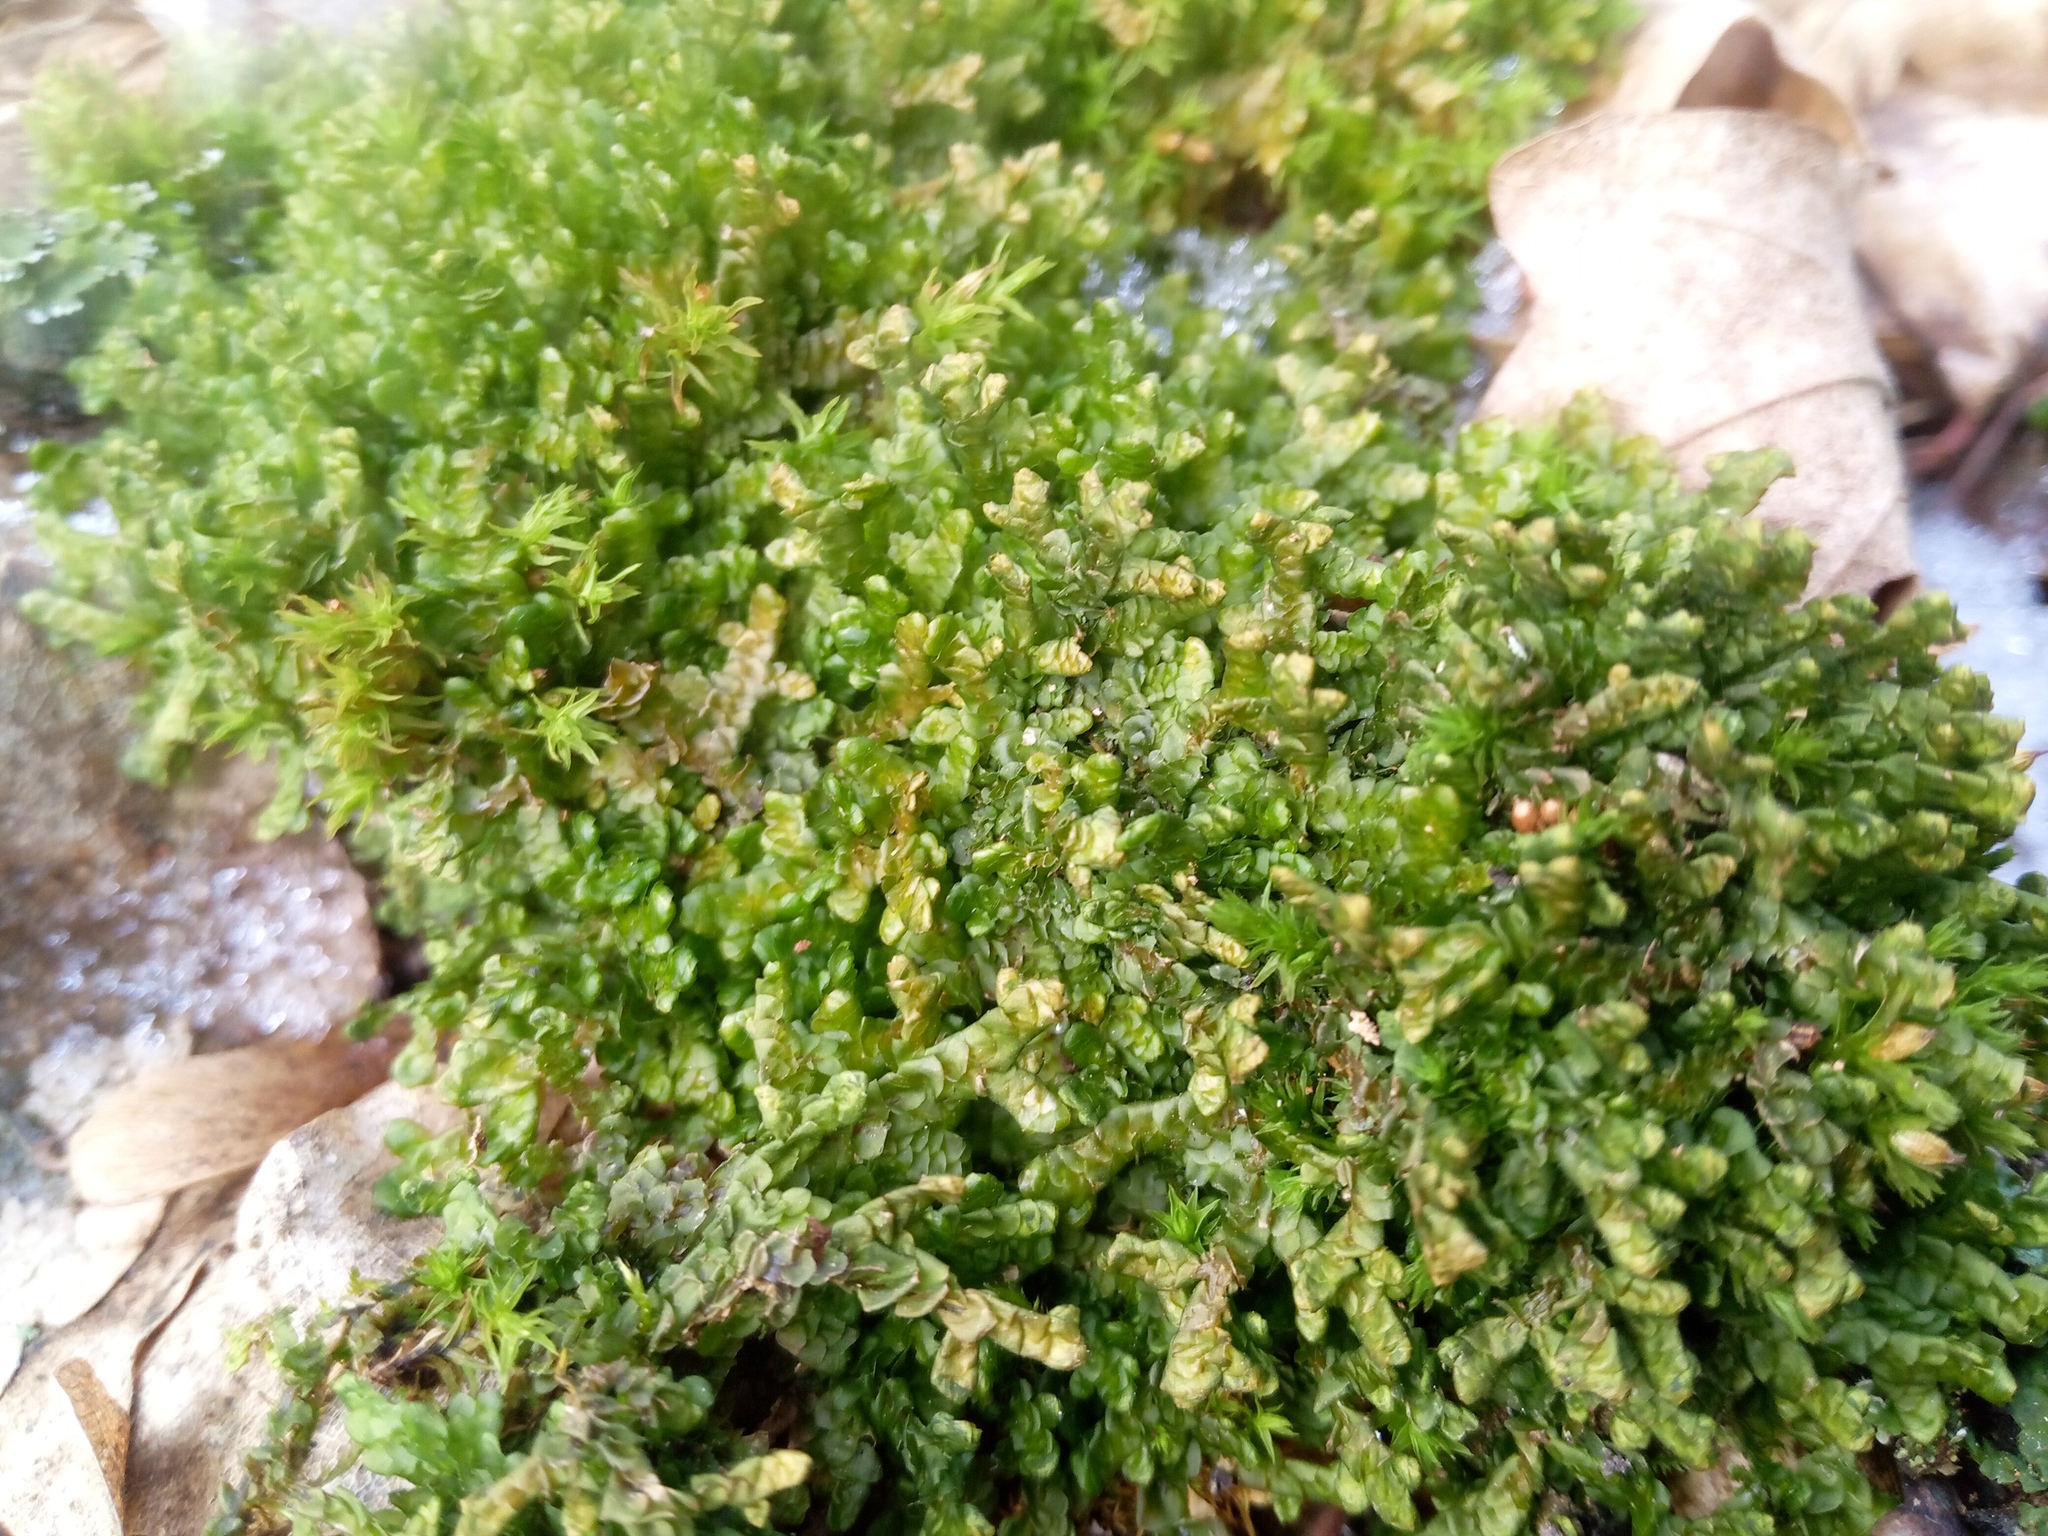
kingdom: Plantae
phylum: Marchantiophyta
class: Jungermanniopsida
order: Porellales
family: Porellaceae
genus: Porella
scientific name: Porella platyphylla
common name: Wall scalewort
